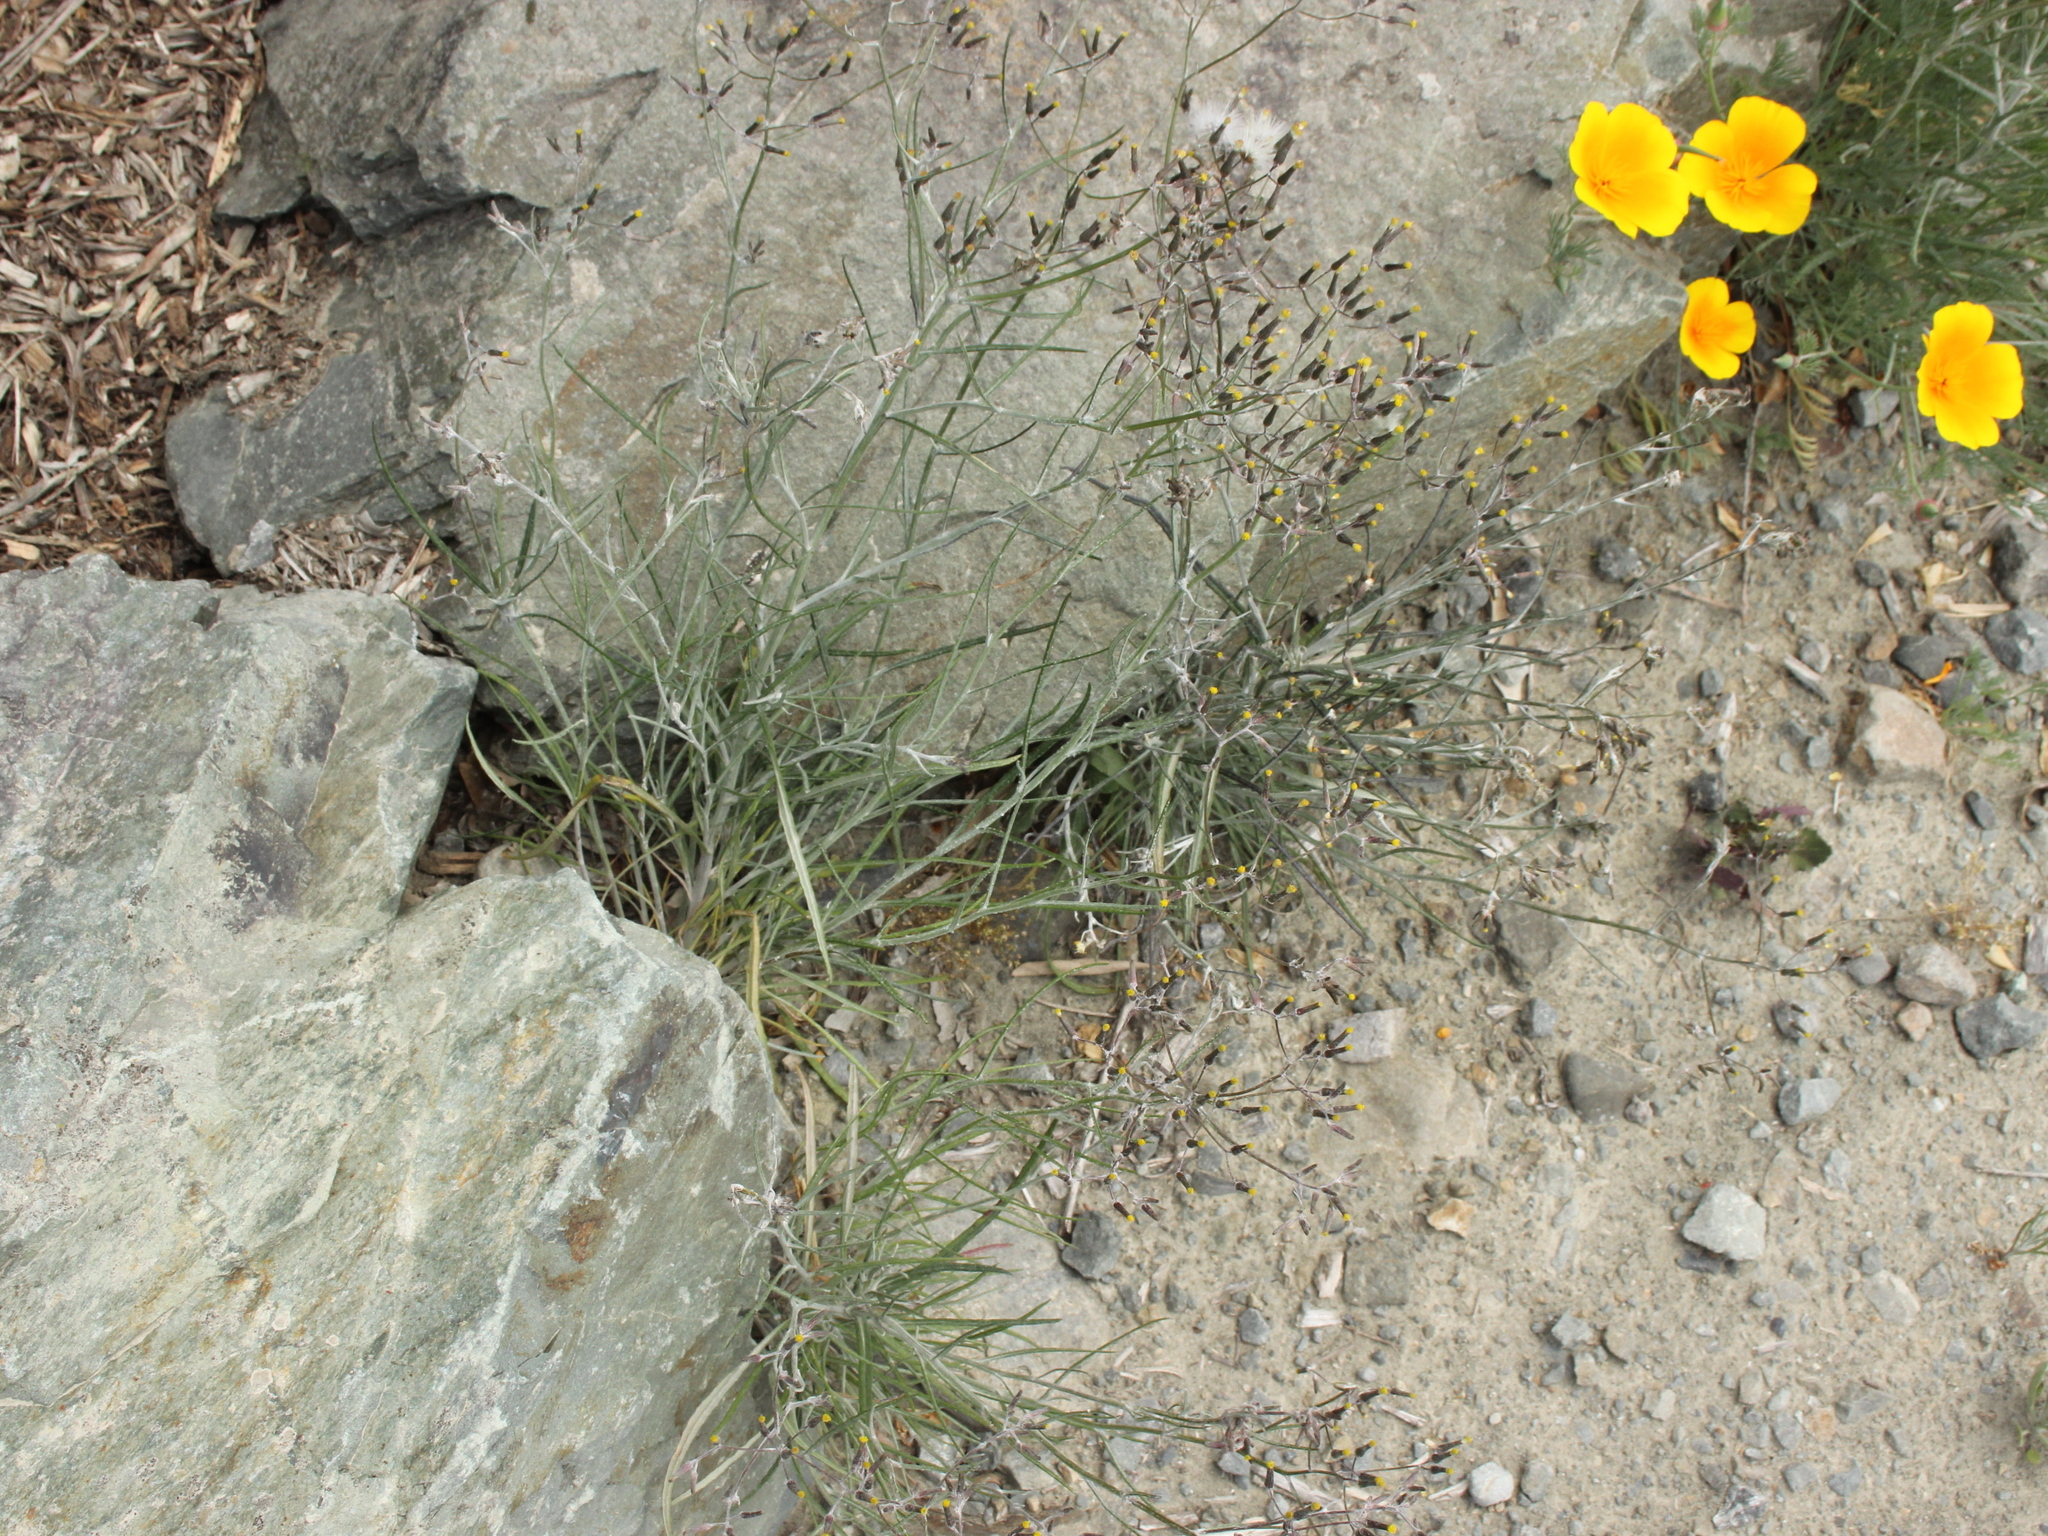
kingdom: Plantae
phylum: Tracheophyta
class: Magnoliopsida
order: Asterales
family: Asteraceae
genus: Senecio
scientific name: Senecio quadridentatus
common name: Cotton fireweed
